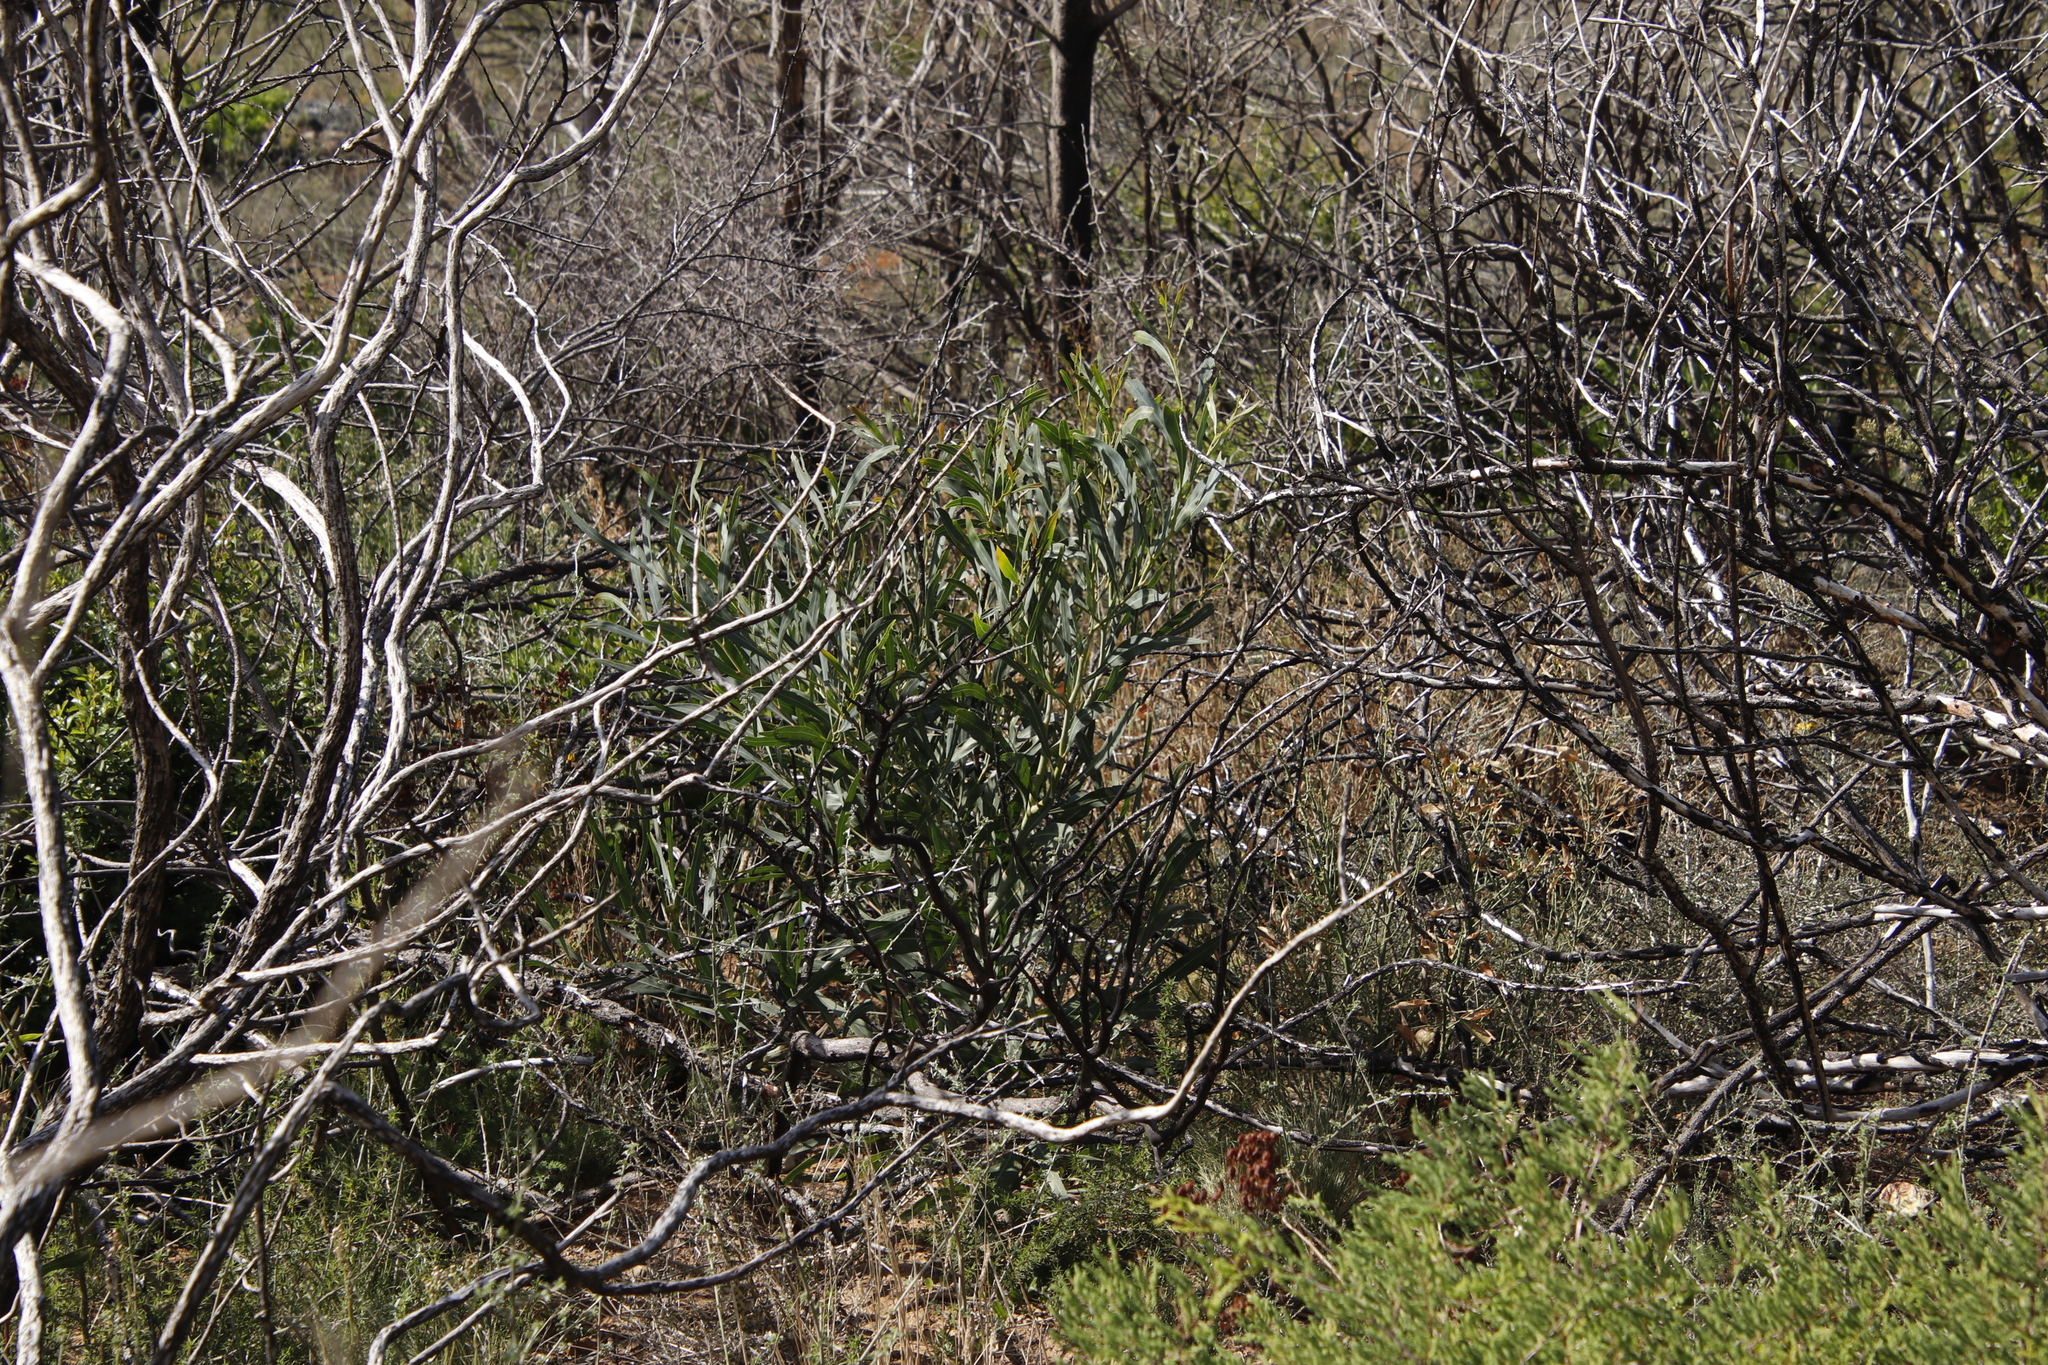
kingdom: Plantae
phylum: Tracheophyta
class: Magnoliopsida
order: Fabales
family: Fabaceae
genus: Acacia
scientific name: Acacia saligna
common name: Orange wattle
